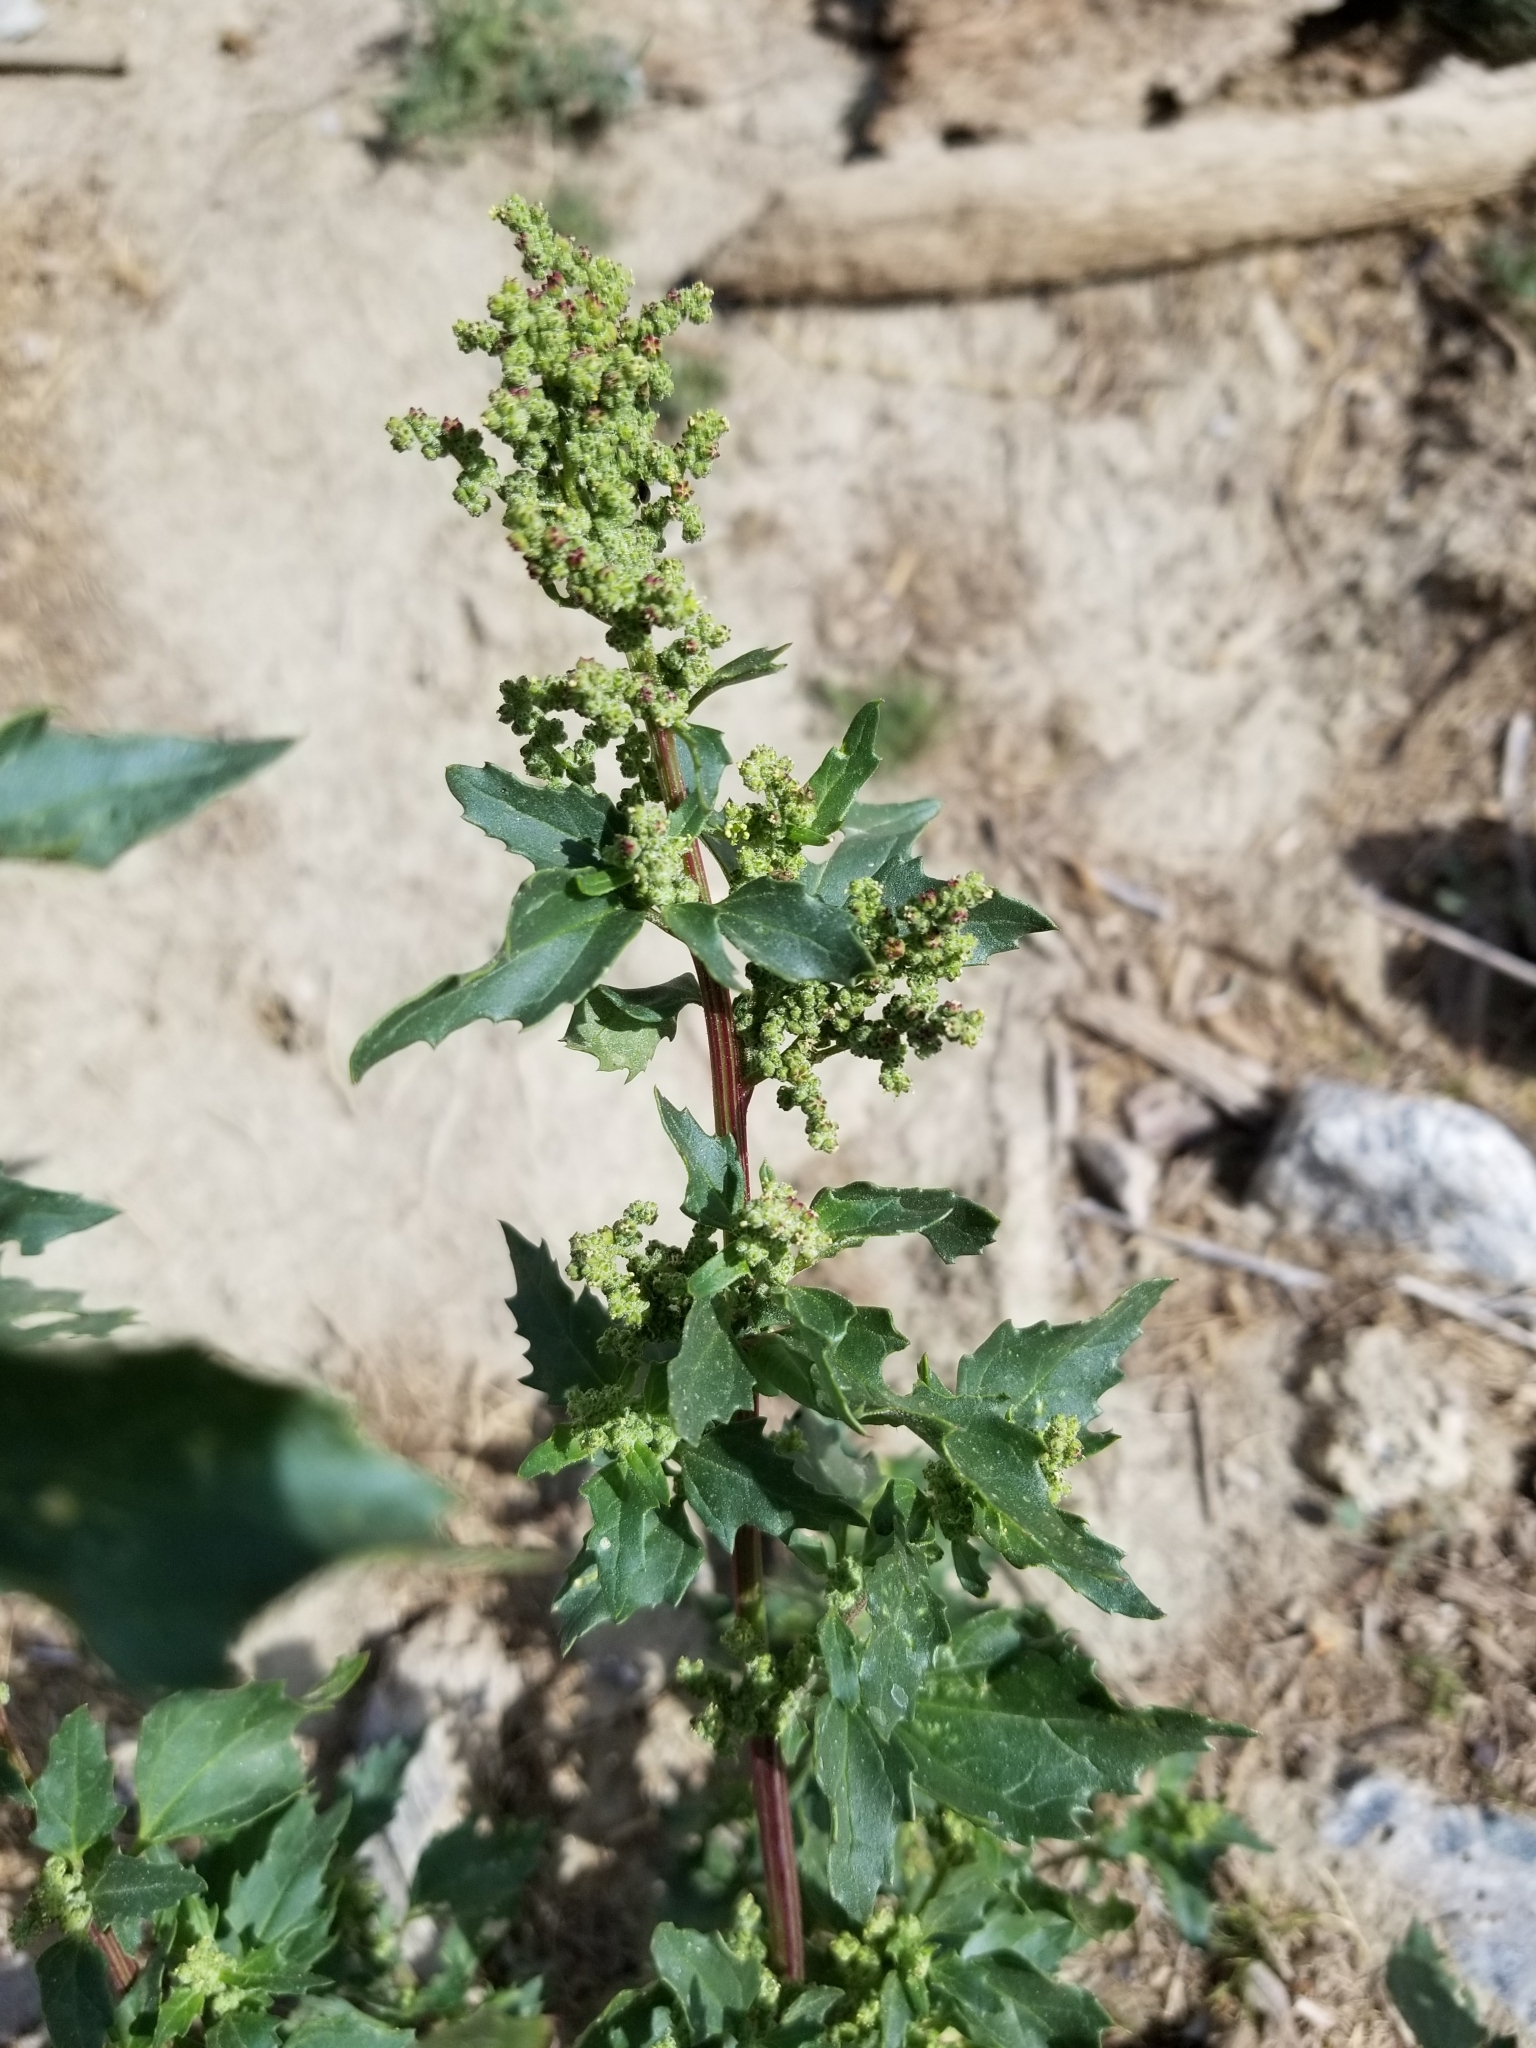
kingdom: Plantae
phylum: Tracheophyta
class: Magnoliopsida
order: Caryophyllales
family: Amaranthaceae
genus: Chenopodiastrum
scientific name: Chenopodiastrum murale
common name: Sowbane
